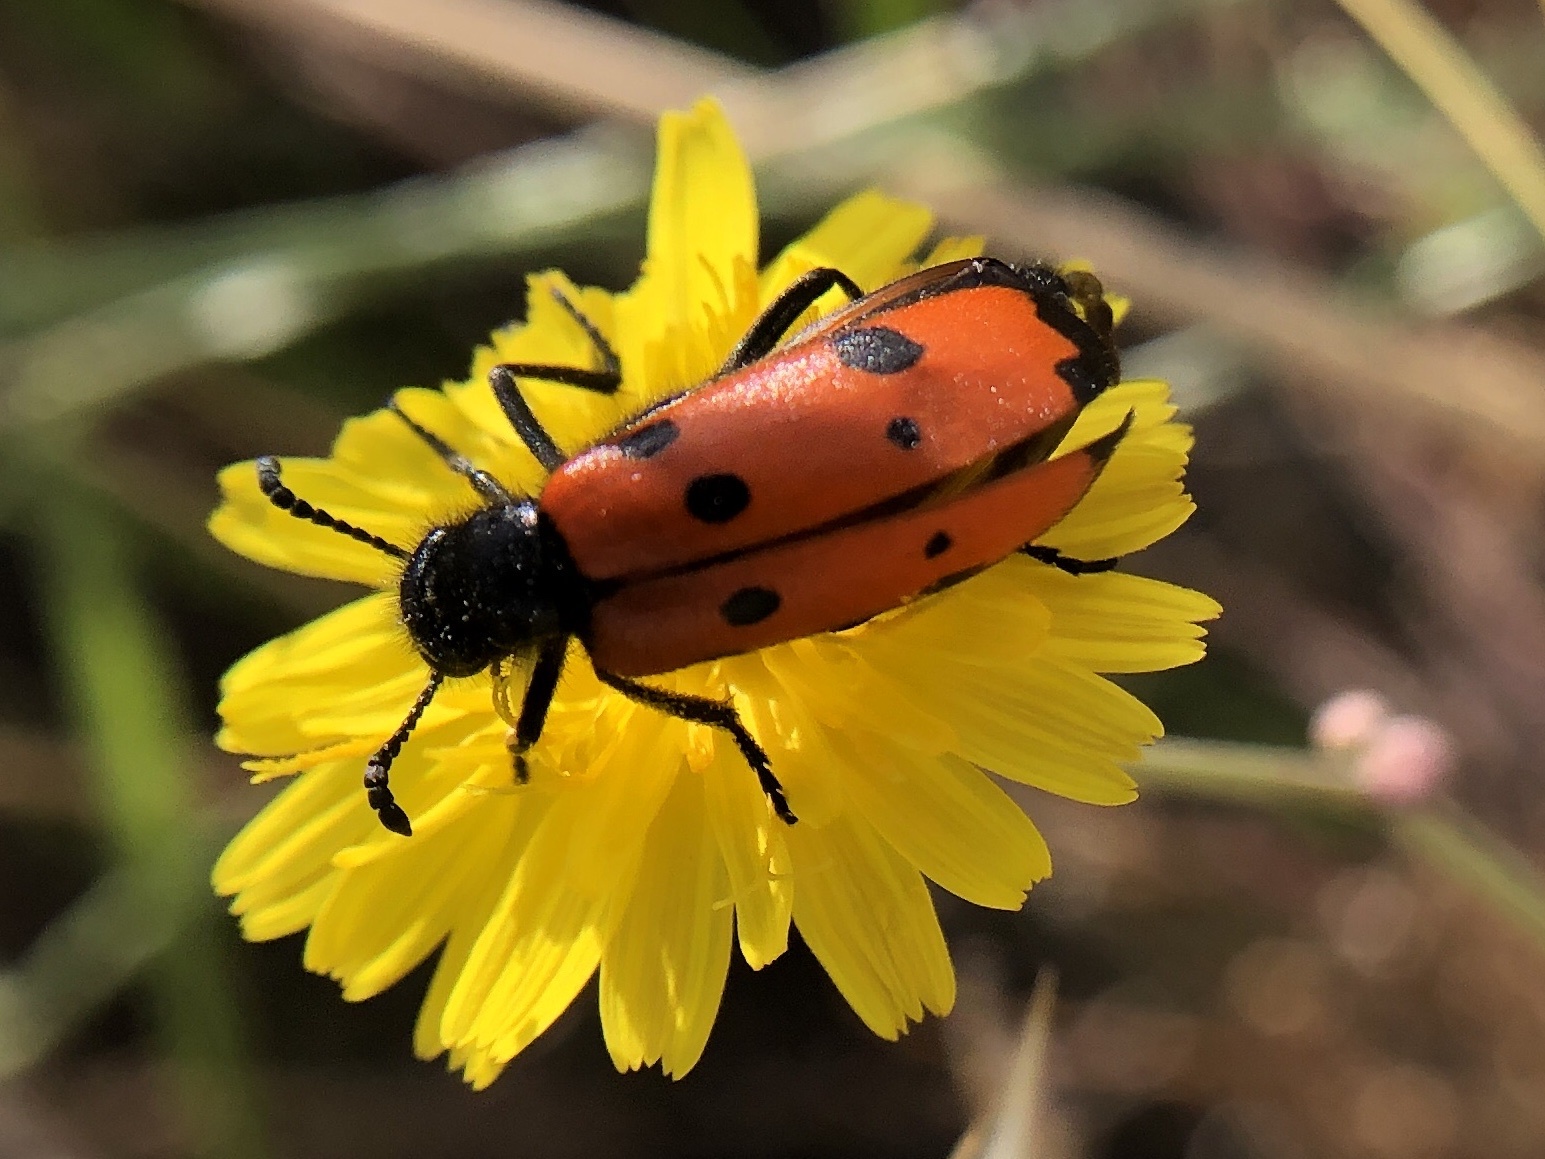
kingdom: Animalia
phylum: Arthropoda
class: Insecta
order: Coleoptera
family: Meloidae
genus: Mylabris
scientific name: Mylabris quadripunctata
